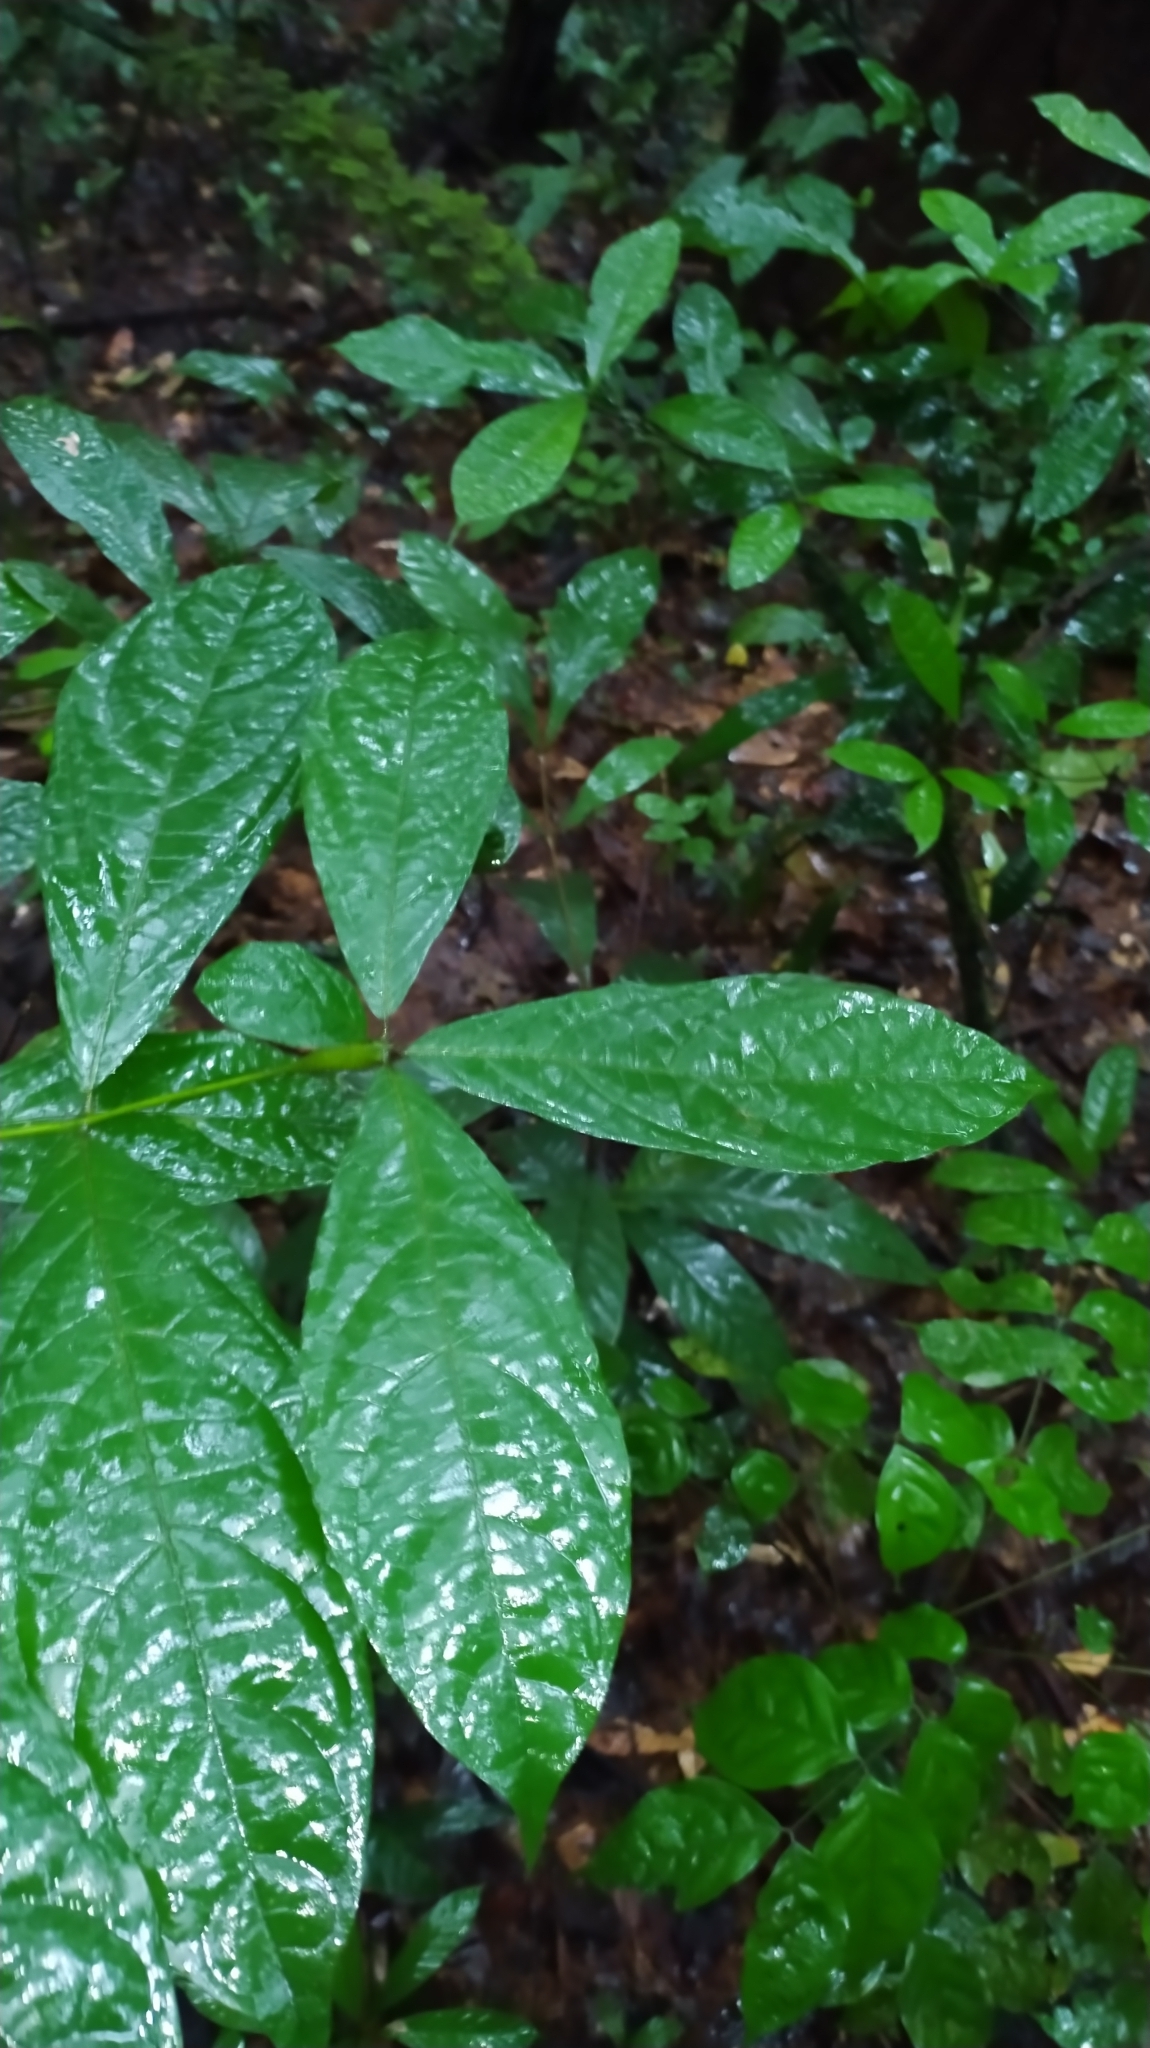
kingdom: Plantae
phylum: Tracheophyta
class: Magnoliopsida
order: Boraginales
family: Cordiaceae
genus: Cordia
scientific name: Cordia nodosa
